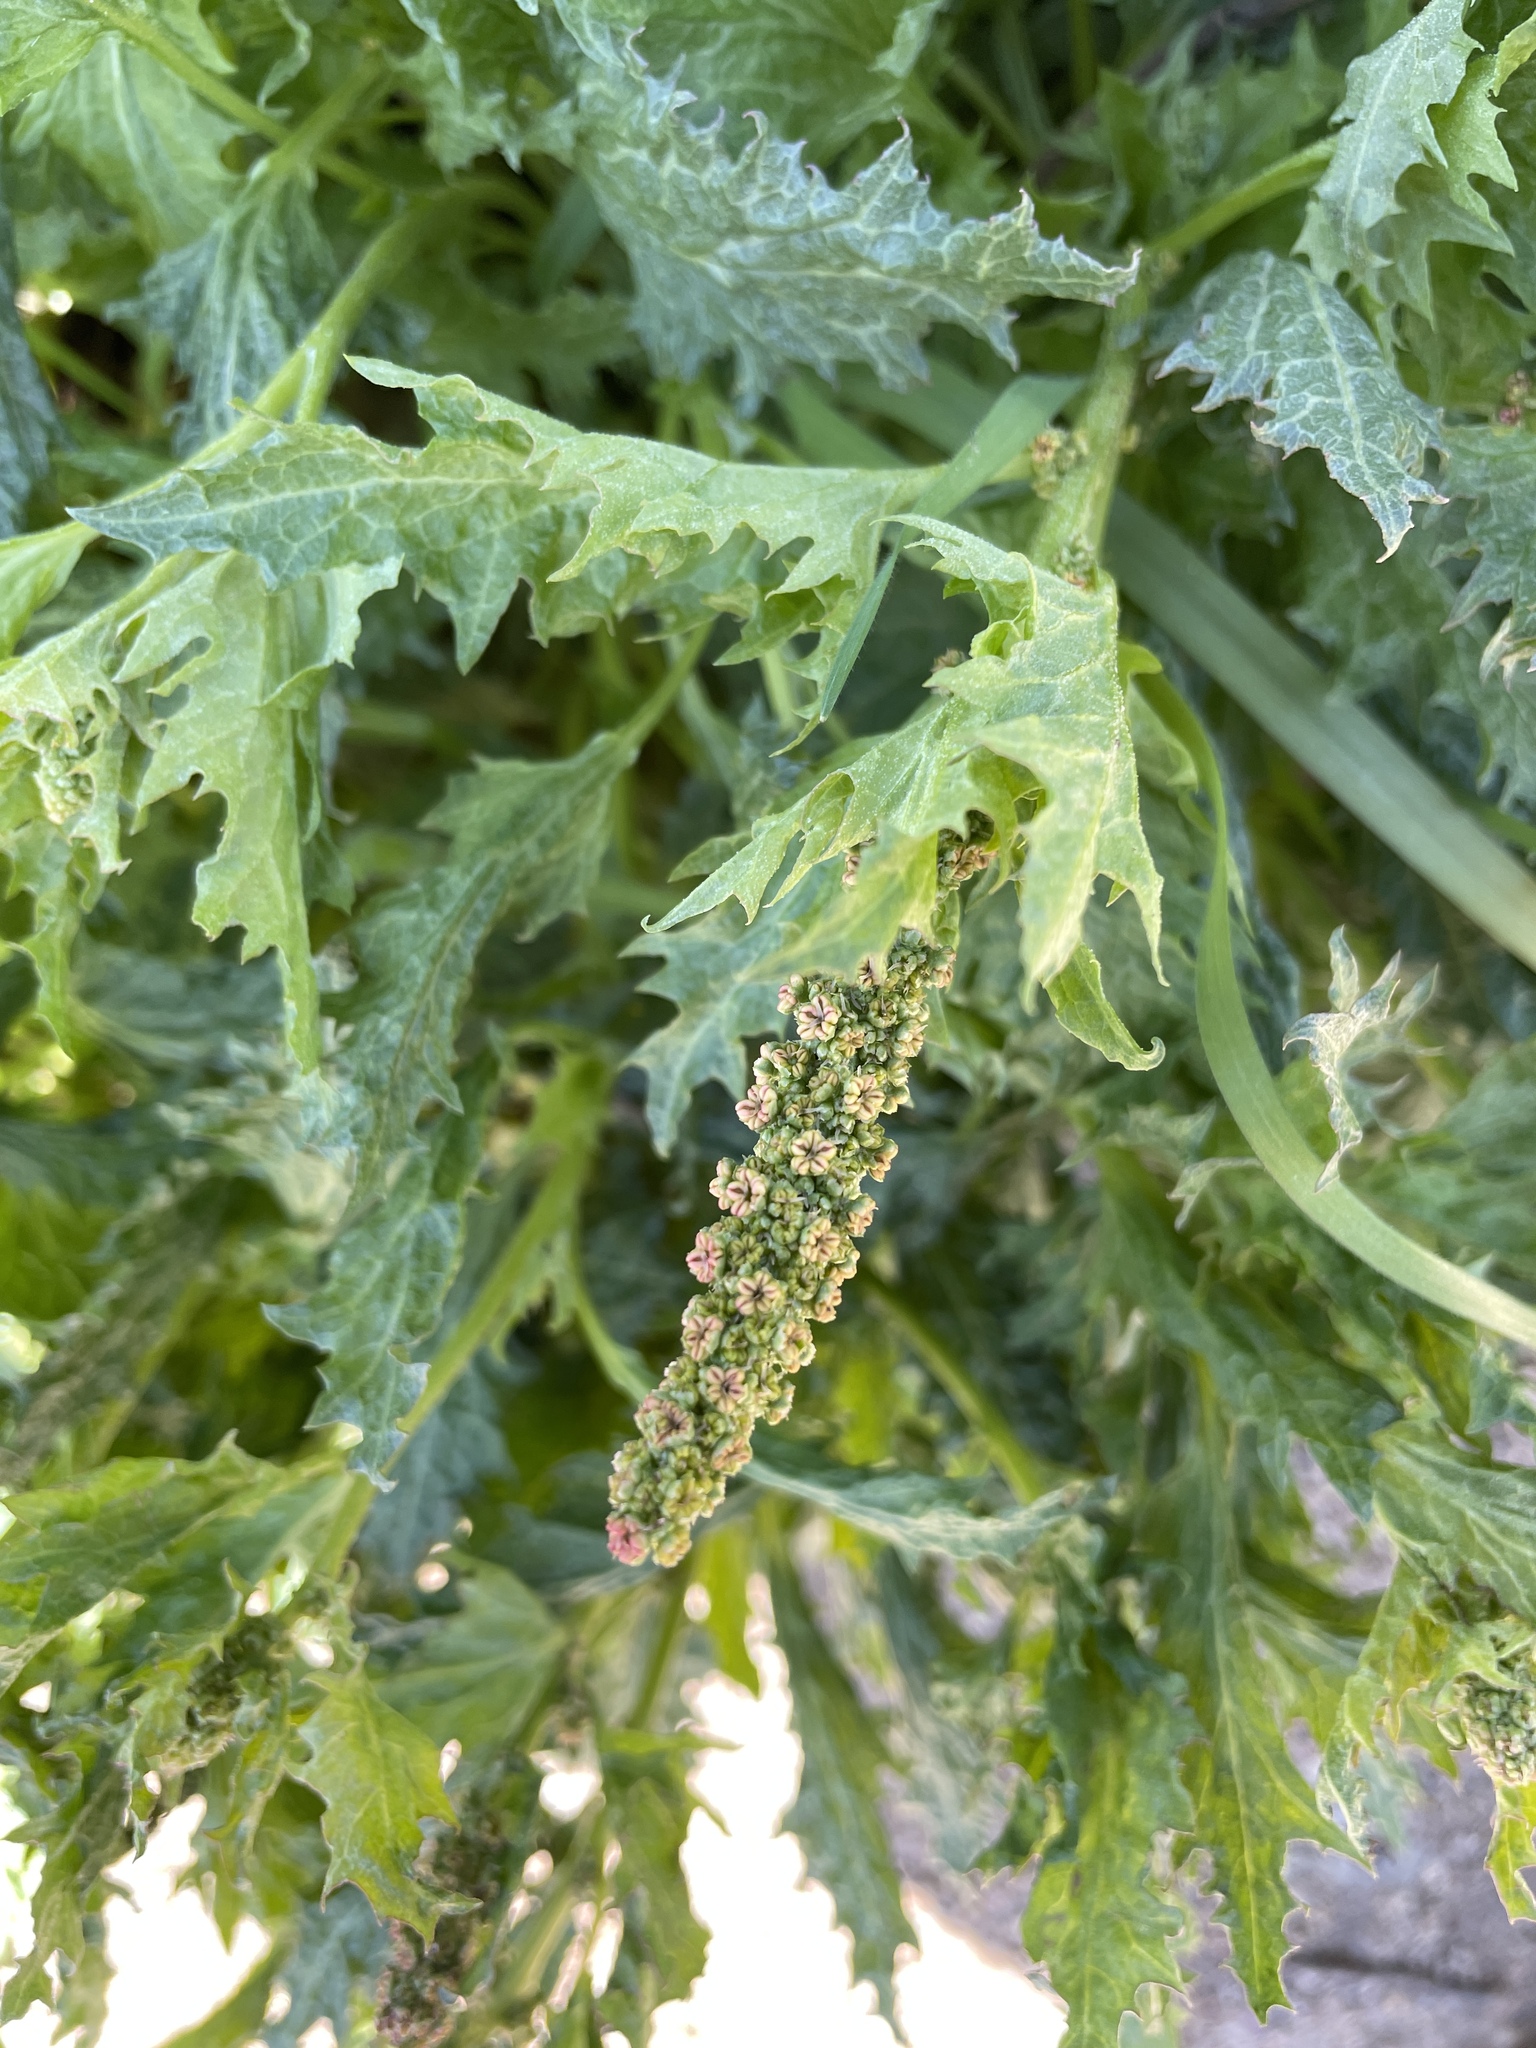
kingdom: Plantae
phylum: Tracheophyta
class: Magnoliopsida
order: Caryophyllales
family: Amaranthaceae
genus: Blitum
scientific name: Blitum californicum
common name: California goosefoot
